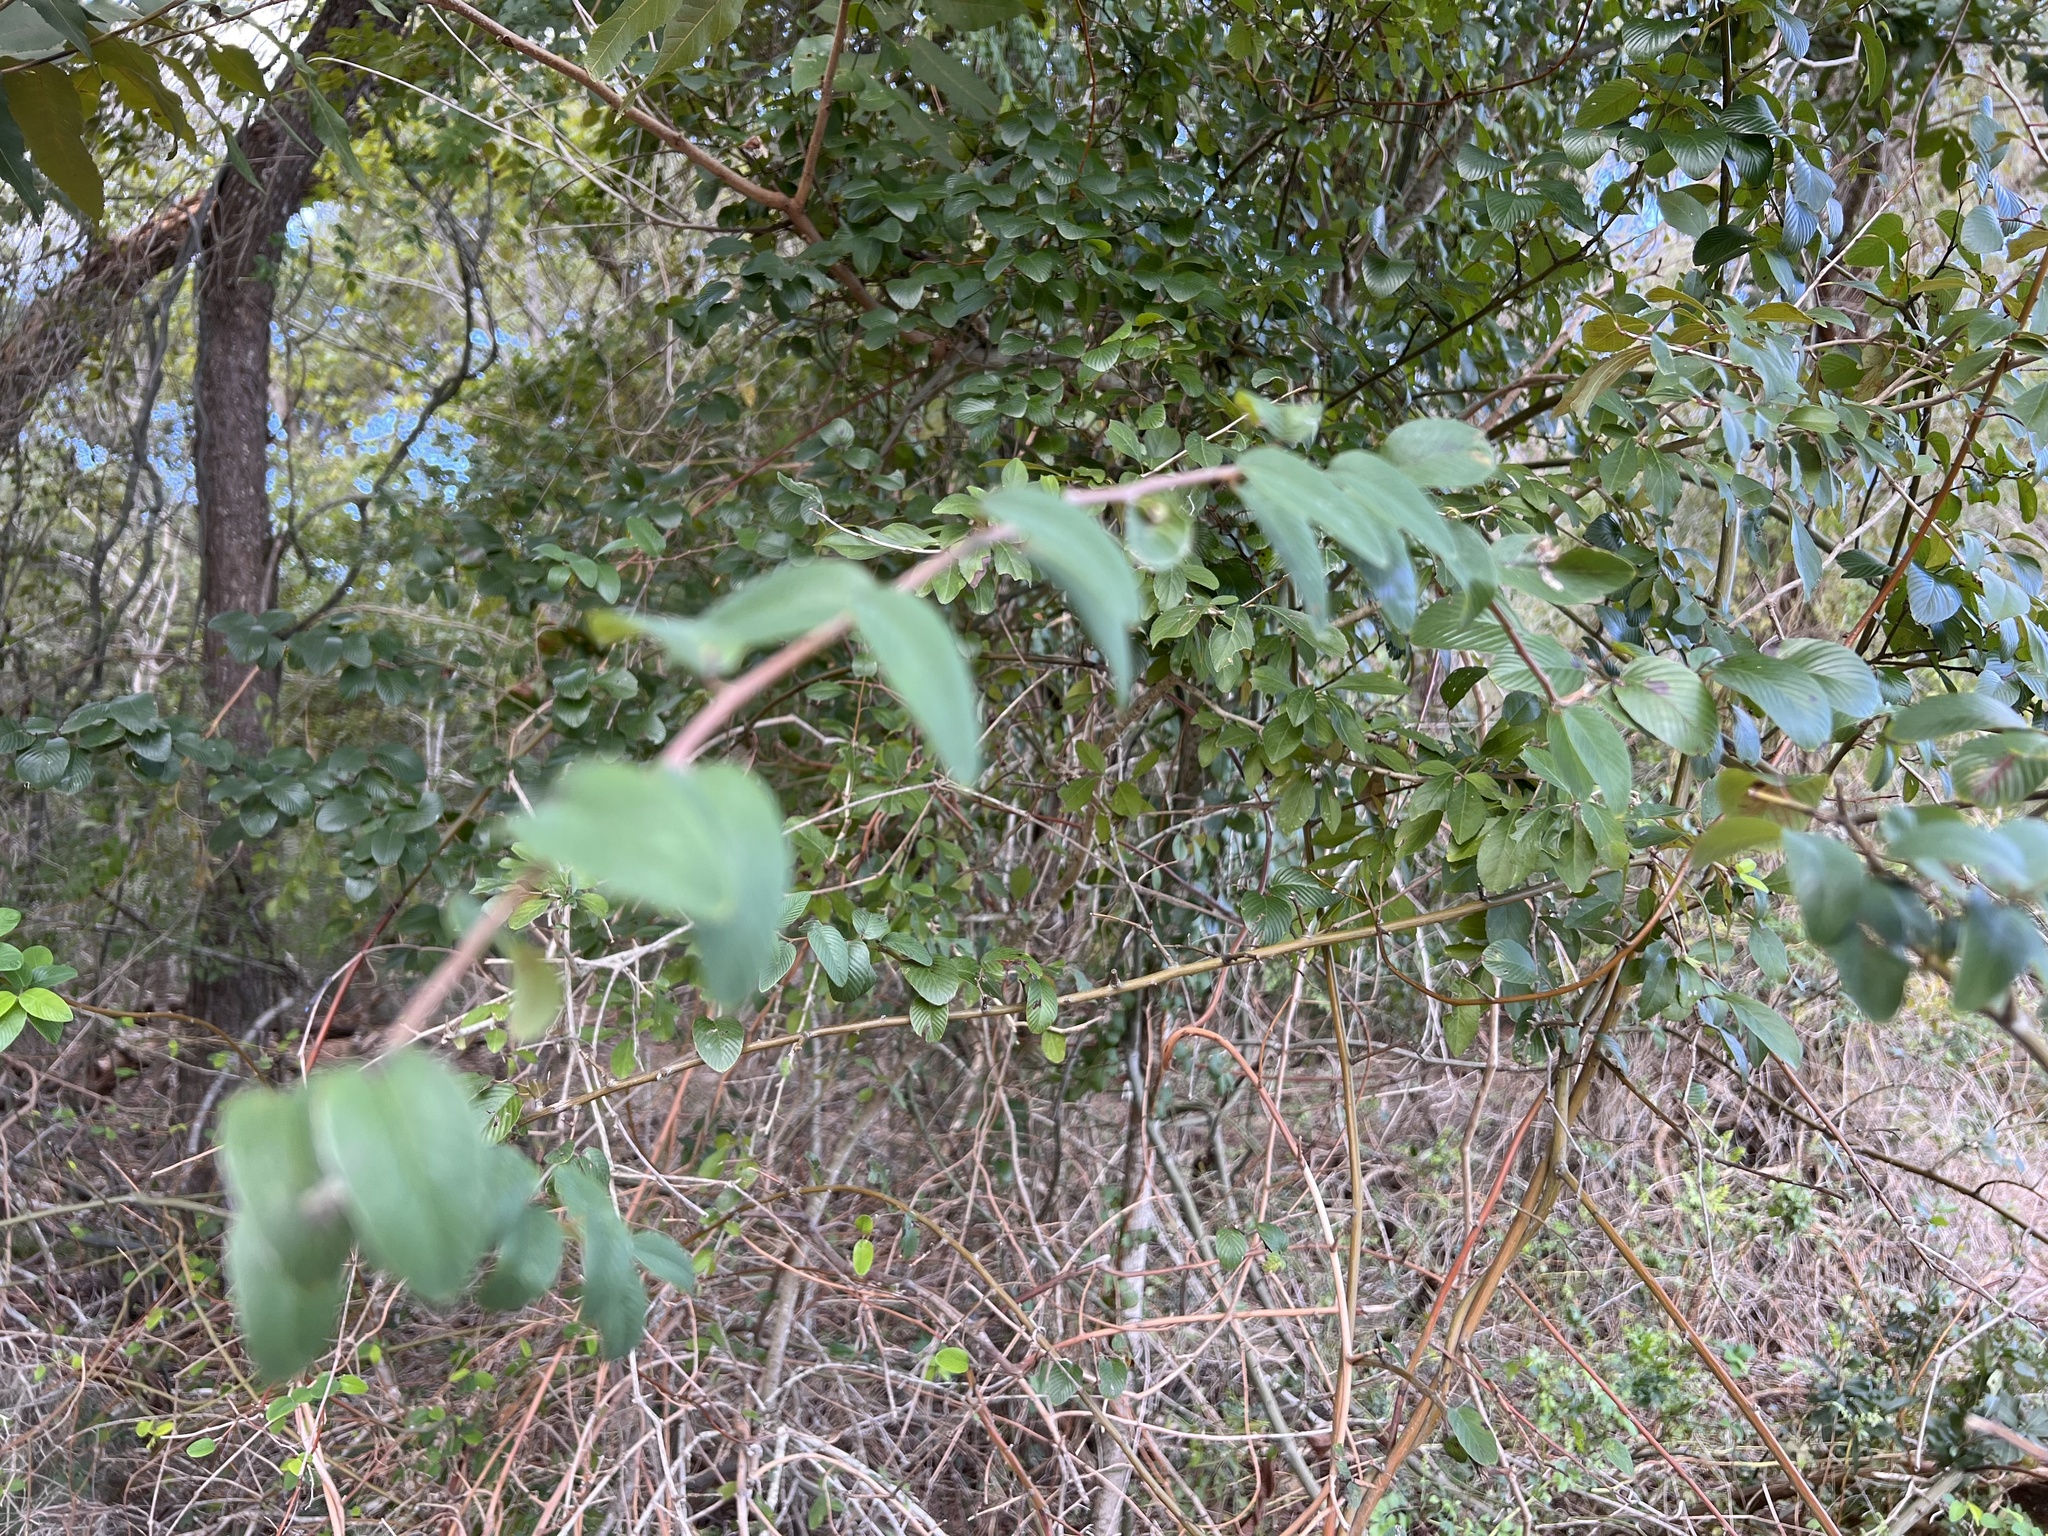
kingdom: Plantae
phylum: Tracheophyta
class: Magnoliopsida
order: Rosales
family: Rhamnaceae
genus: Berchemia
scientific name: Berchemia scandens
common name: Supplejack
